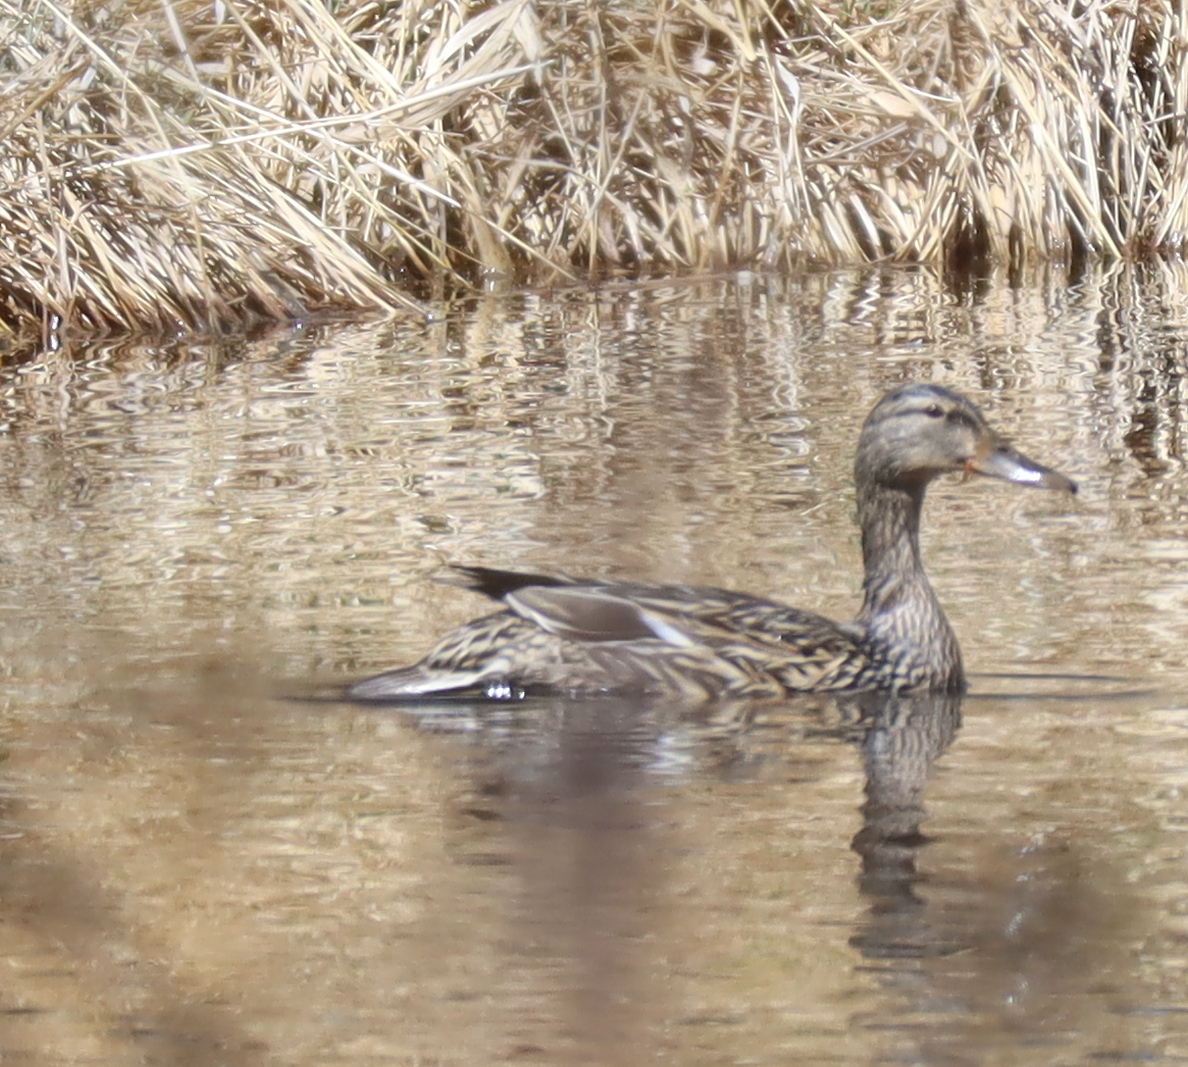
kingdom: Animalia
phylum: Chordata
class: Aves
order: Anseriformes
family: Anatidae
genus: Anas
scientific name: Anas platyrhynchos
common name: Mallard
